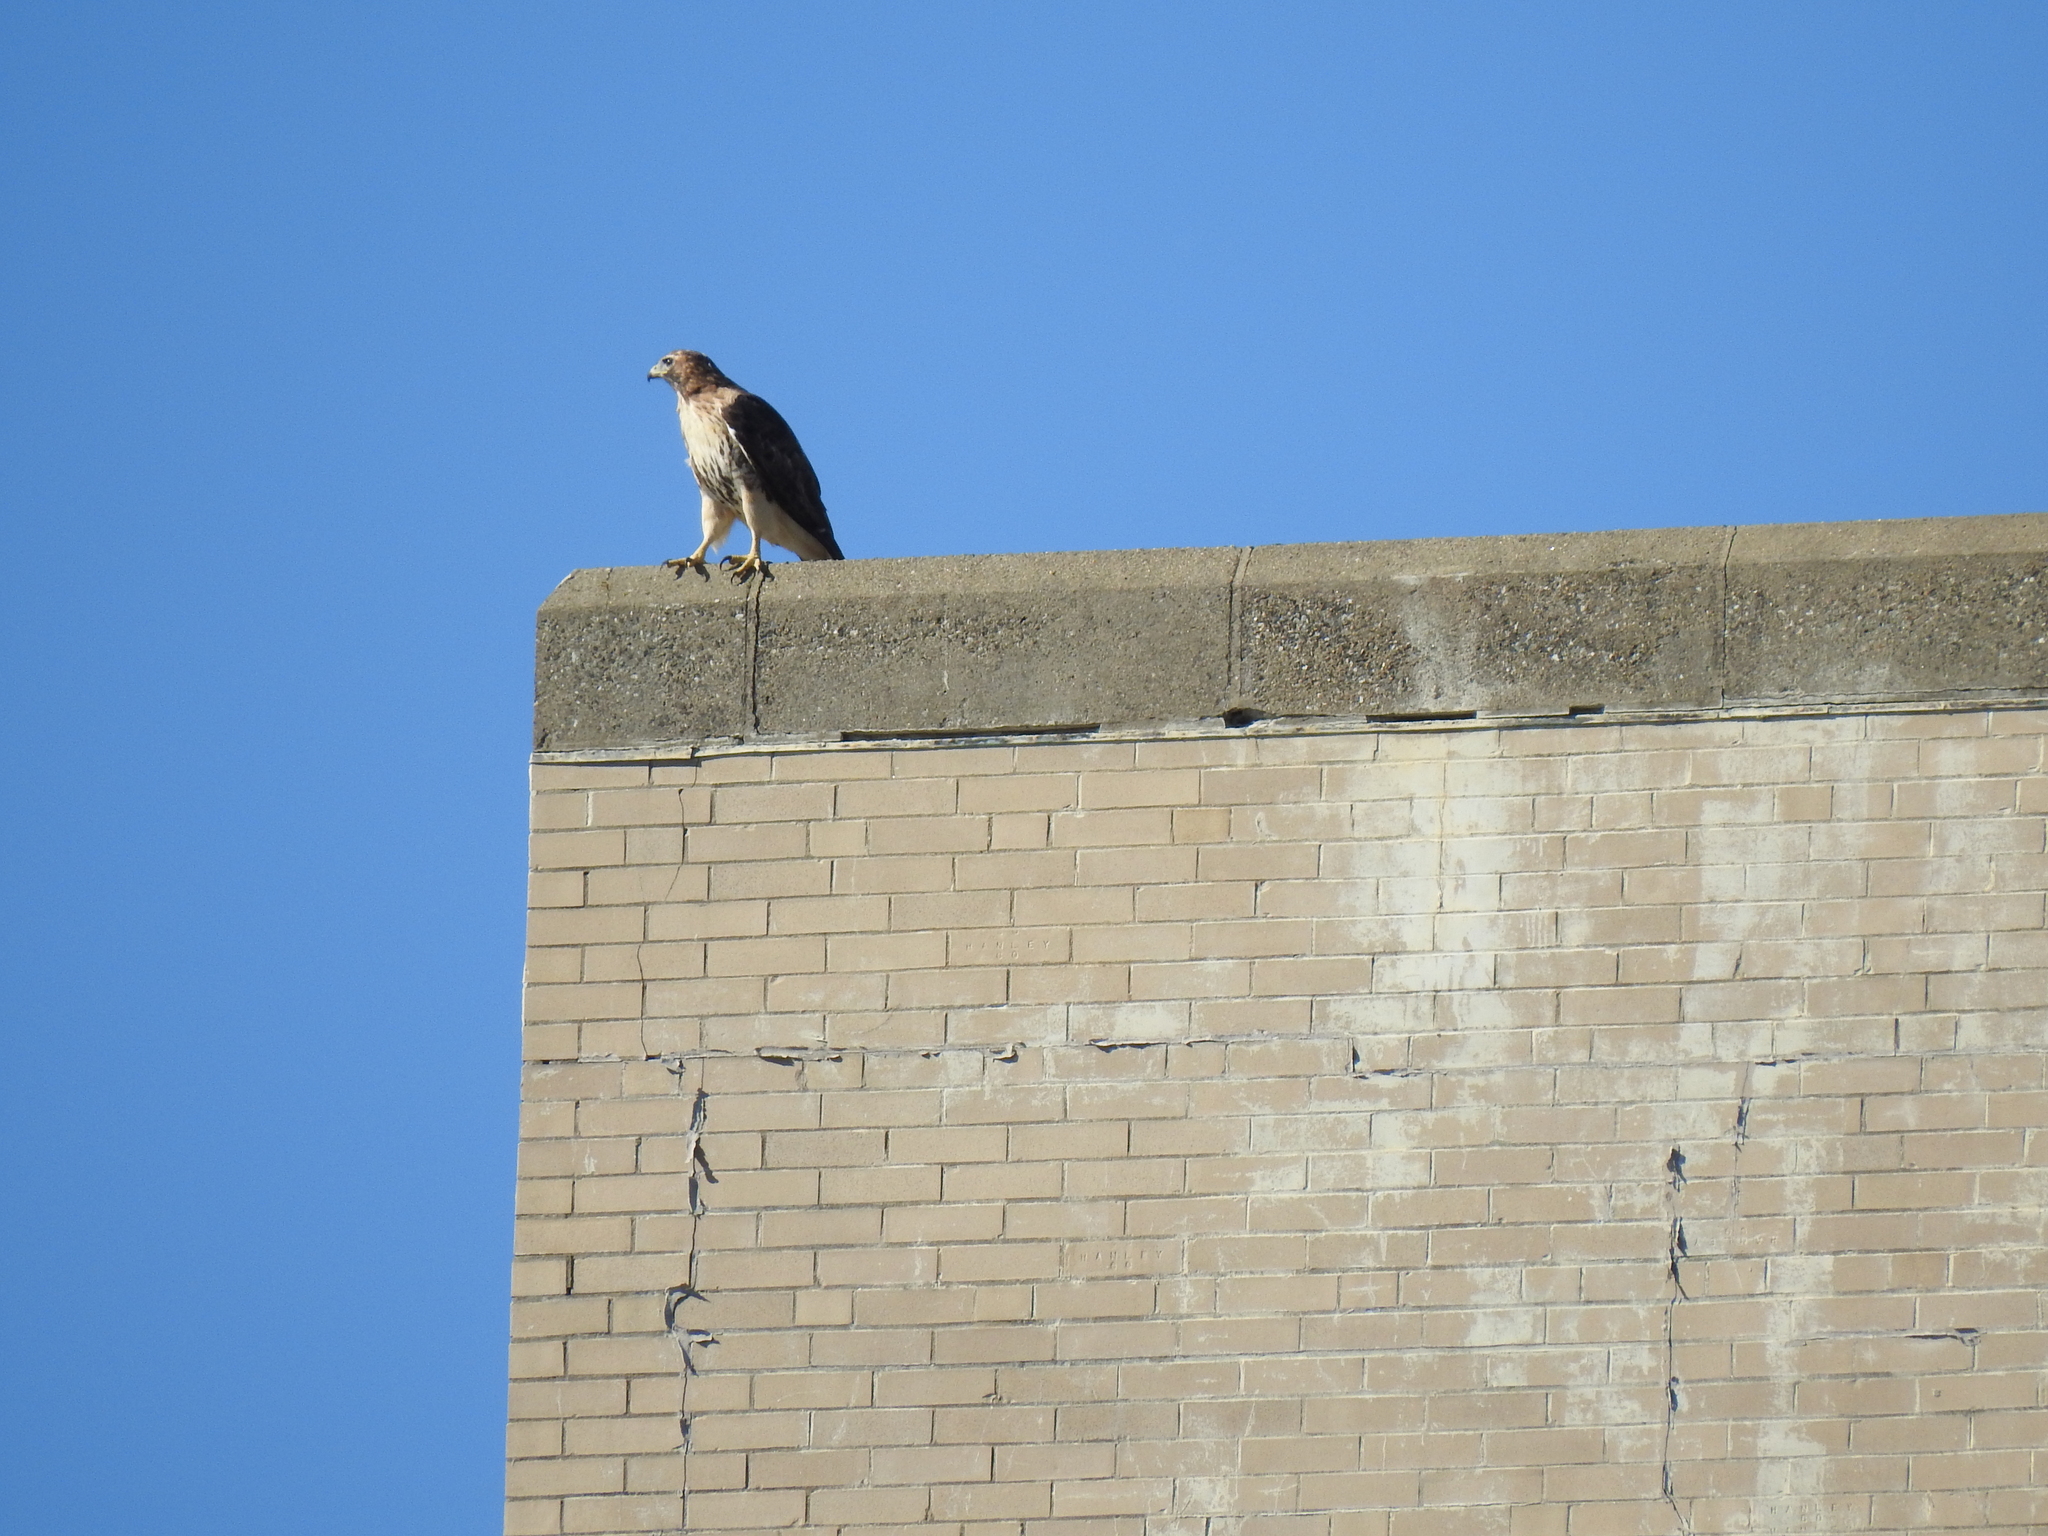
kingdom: Animalia
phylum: Chordata
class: Aves
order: Accipitriformes
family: Accipitridae
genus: Buteo
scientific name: Buteo jamaicensis
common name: Red-tailed hawk
